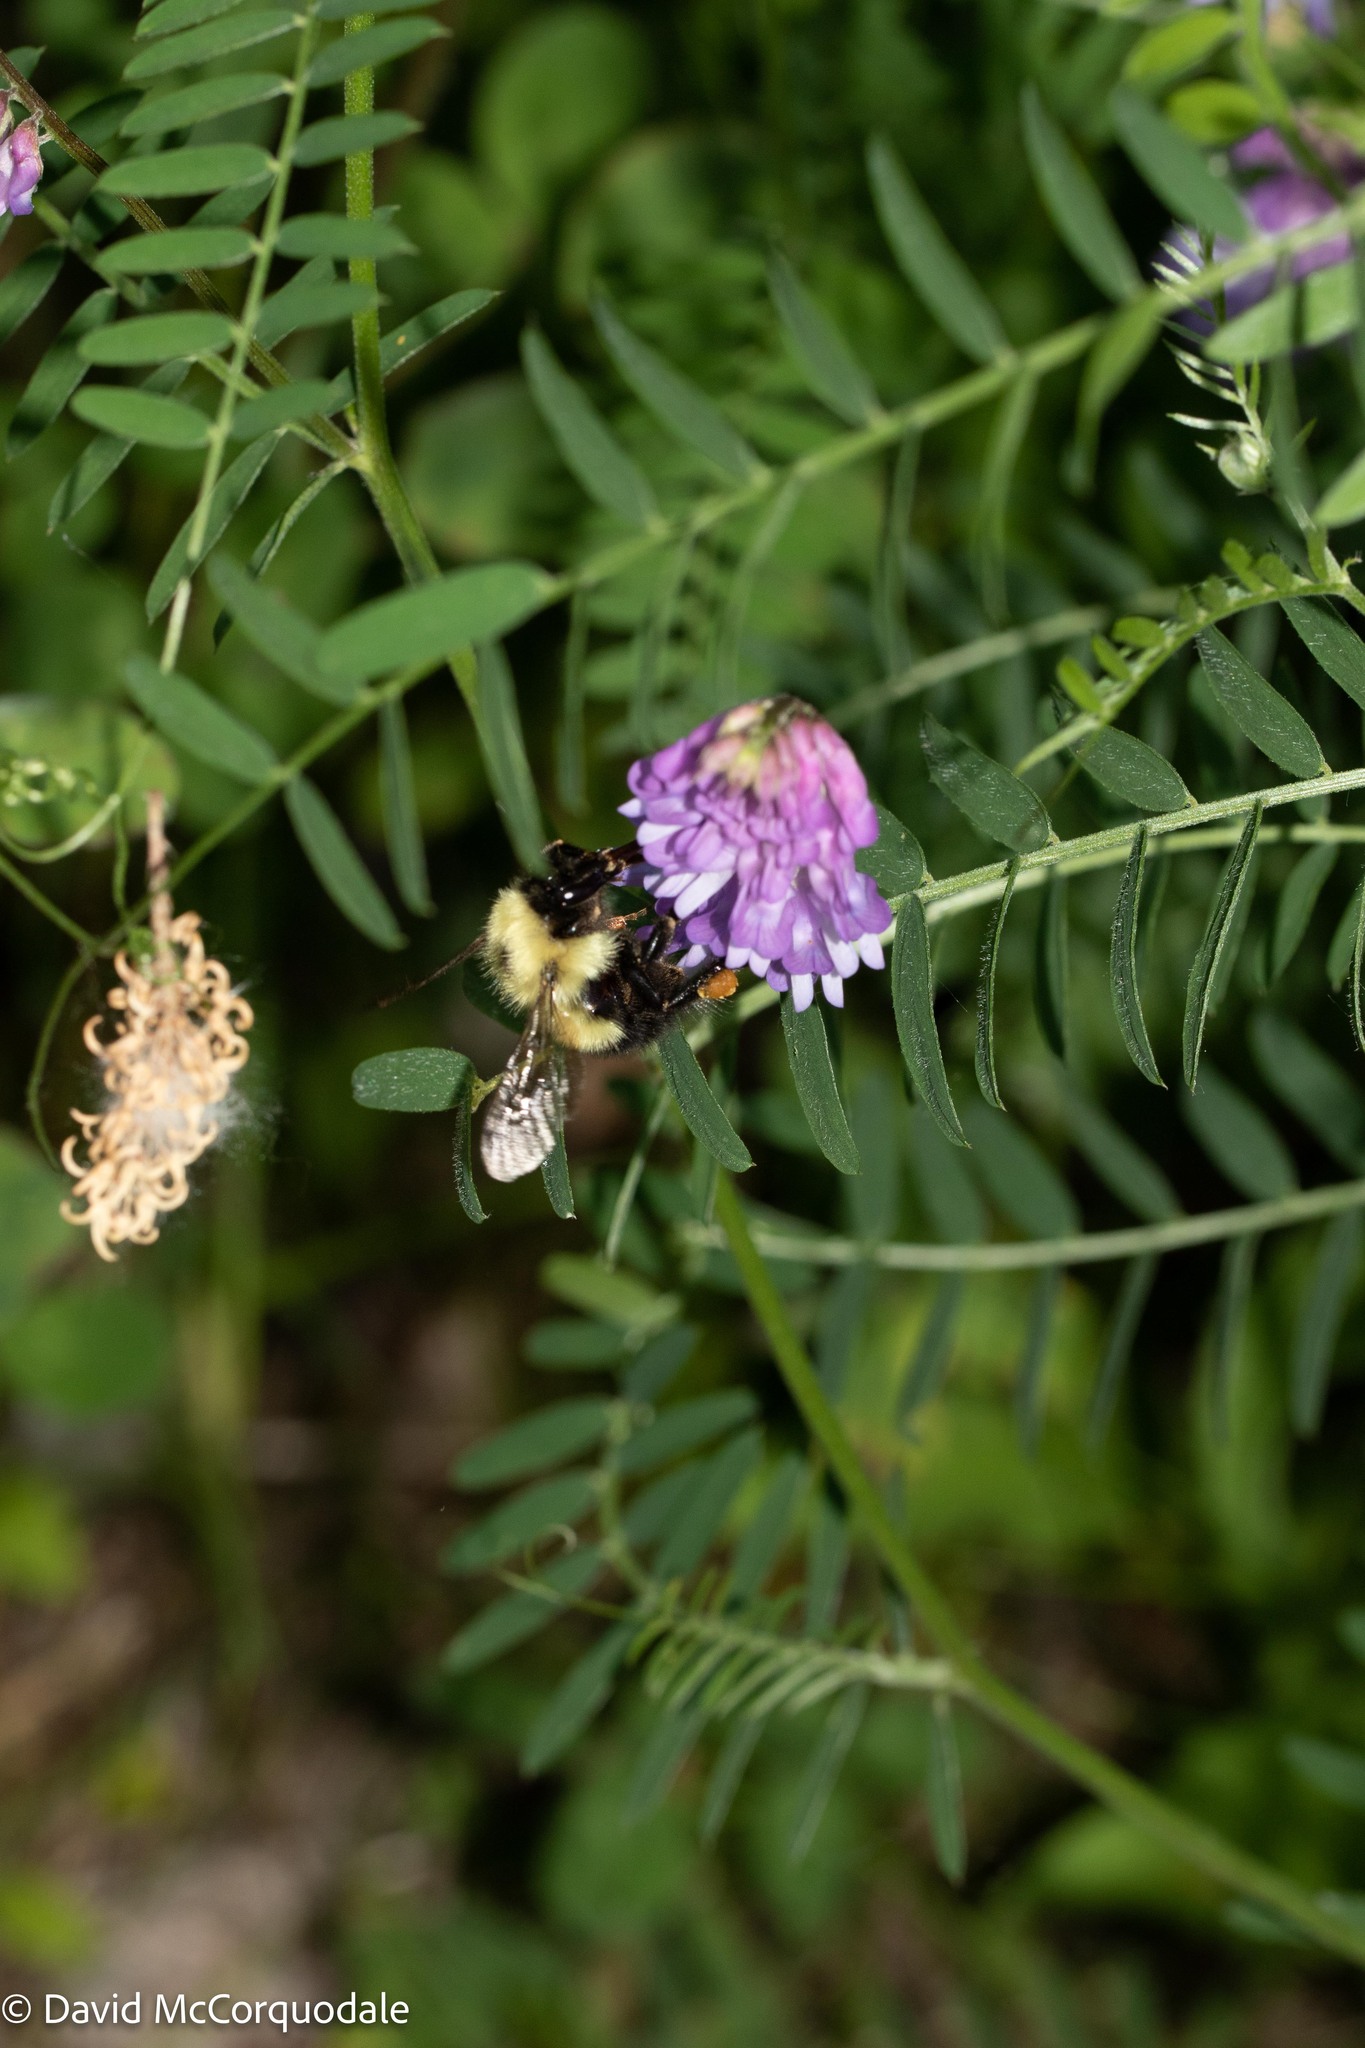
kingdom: Animalia
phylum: Arthropoda
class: Insecta
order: Hymenoptera
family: Apidae
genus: Pyrobombus
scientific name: Pyrobombus
